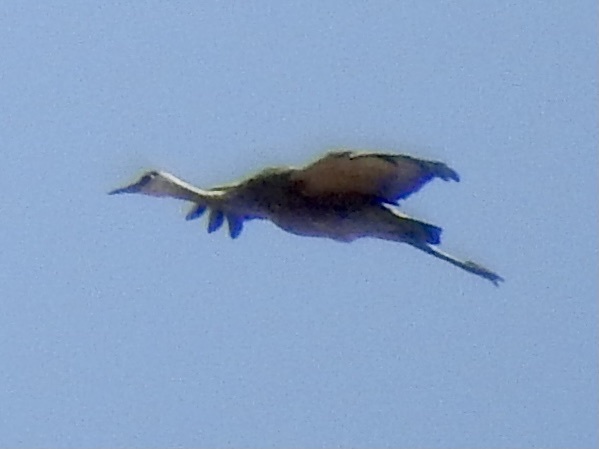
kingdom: Animalia
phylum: Chordata
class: Aves
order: Gruiformes
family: Gruidae
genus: Grus
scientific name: Grus canadensis
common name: Sandhill crane
